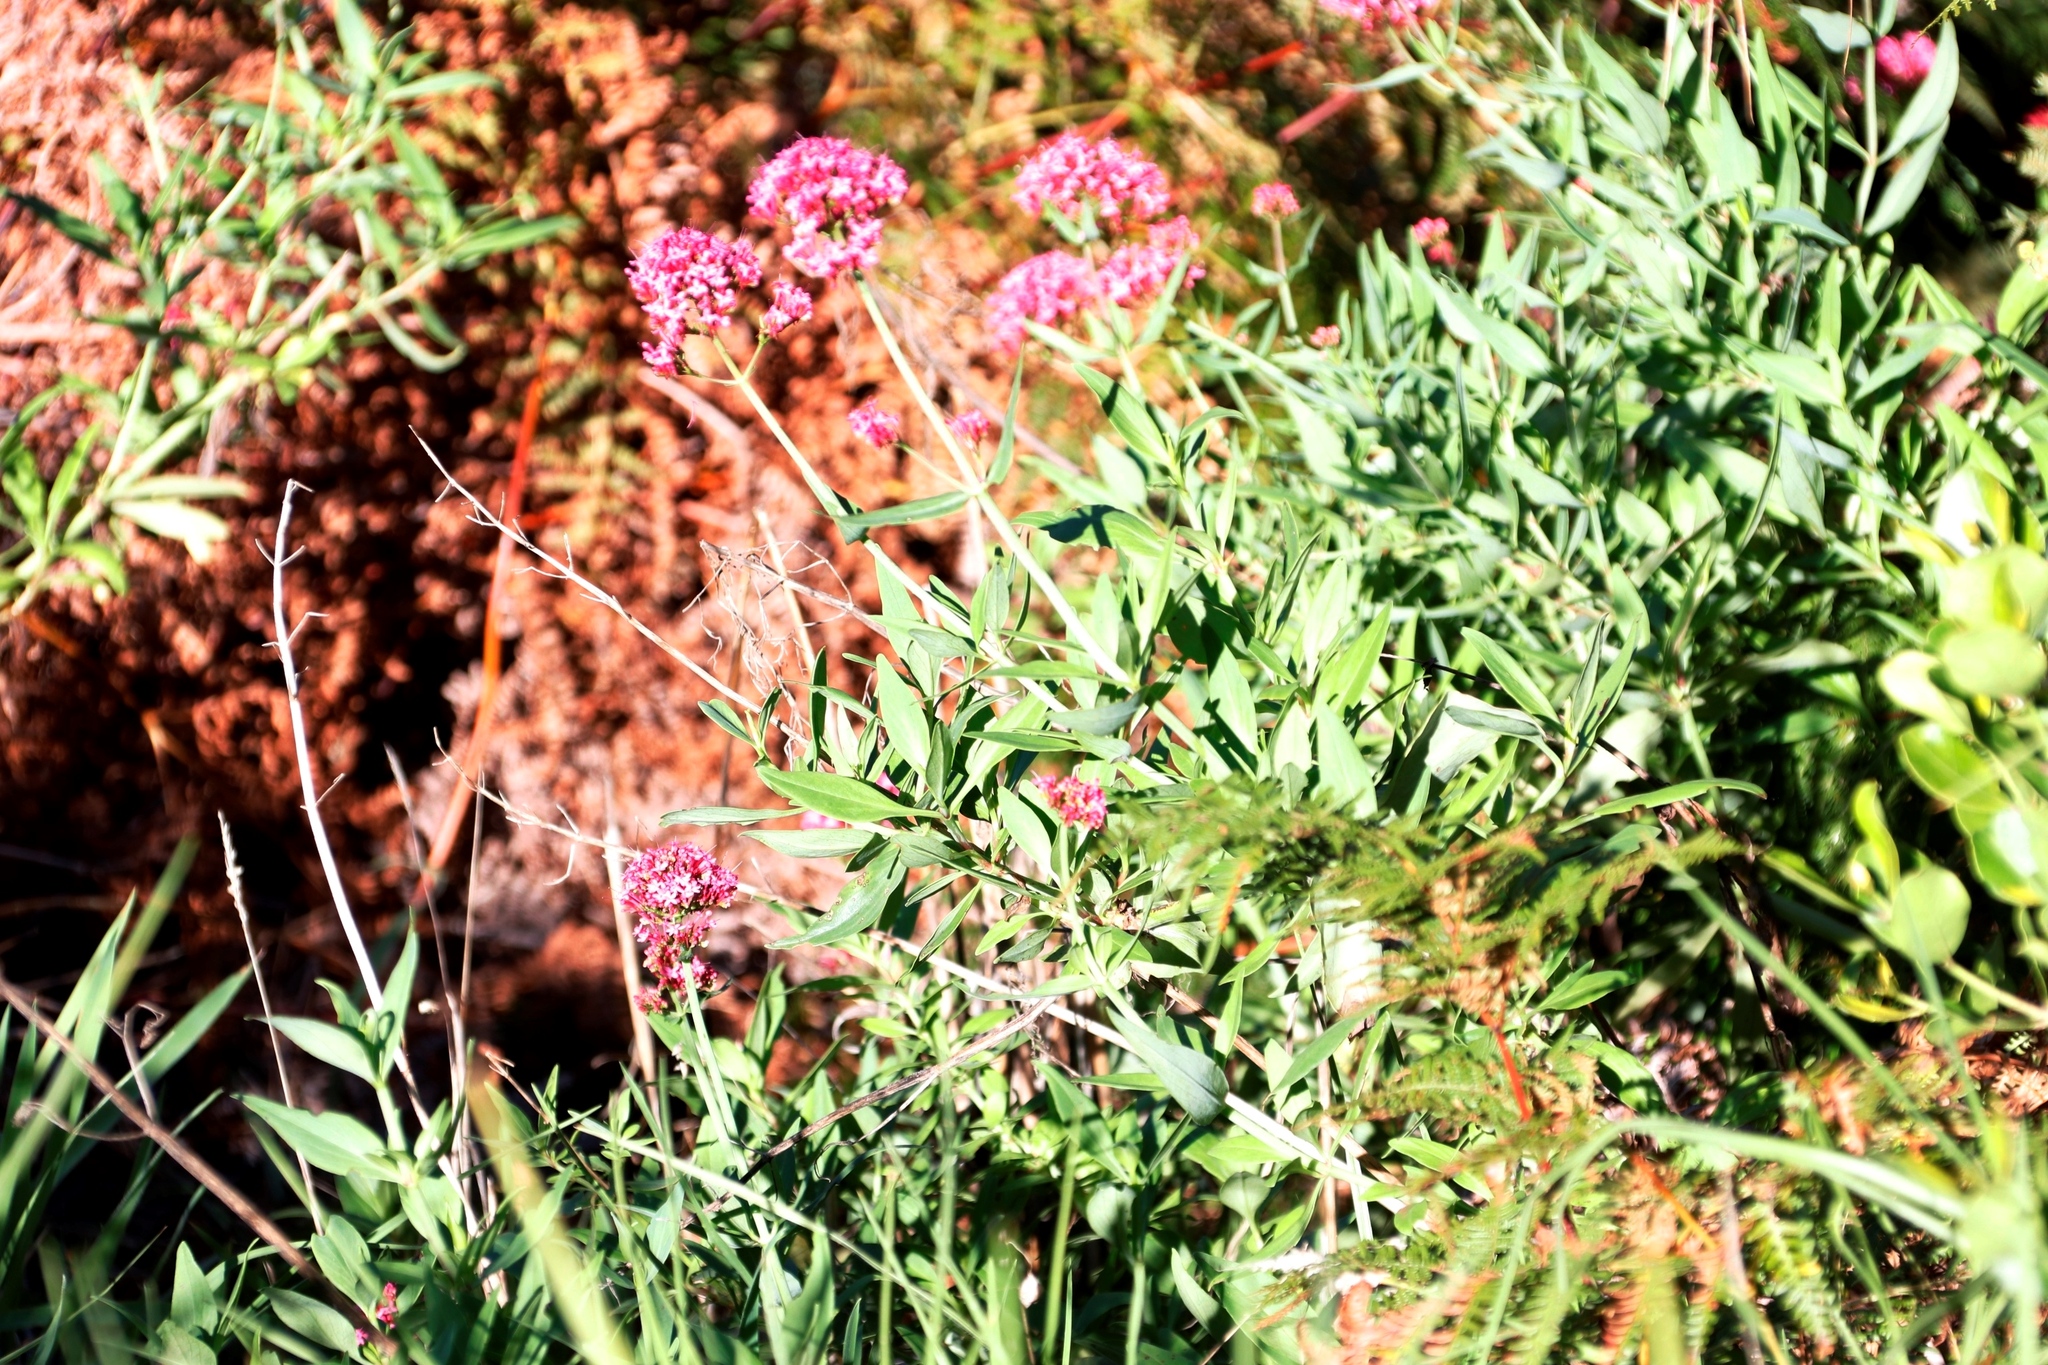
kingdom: Plantae
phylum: Tracheophyta
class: Magnoliopsida
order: Dipsacales
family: Caprifoliaceae
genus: Centranthus
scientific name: Centranthus ruber
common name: Red valerian
